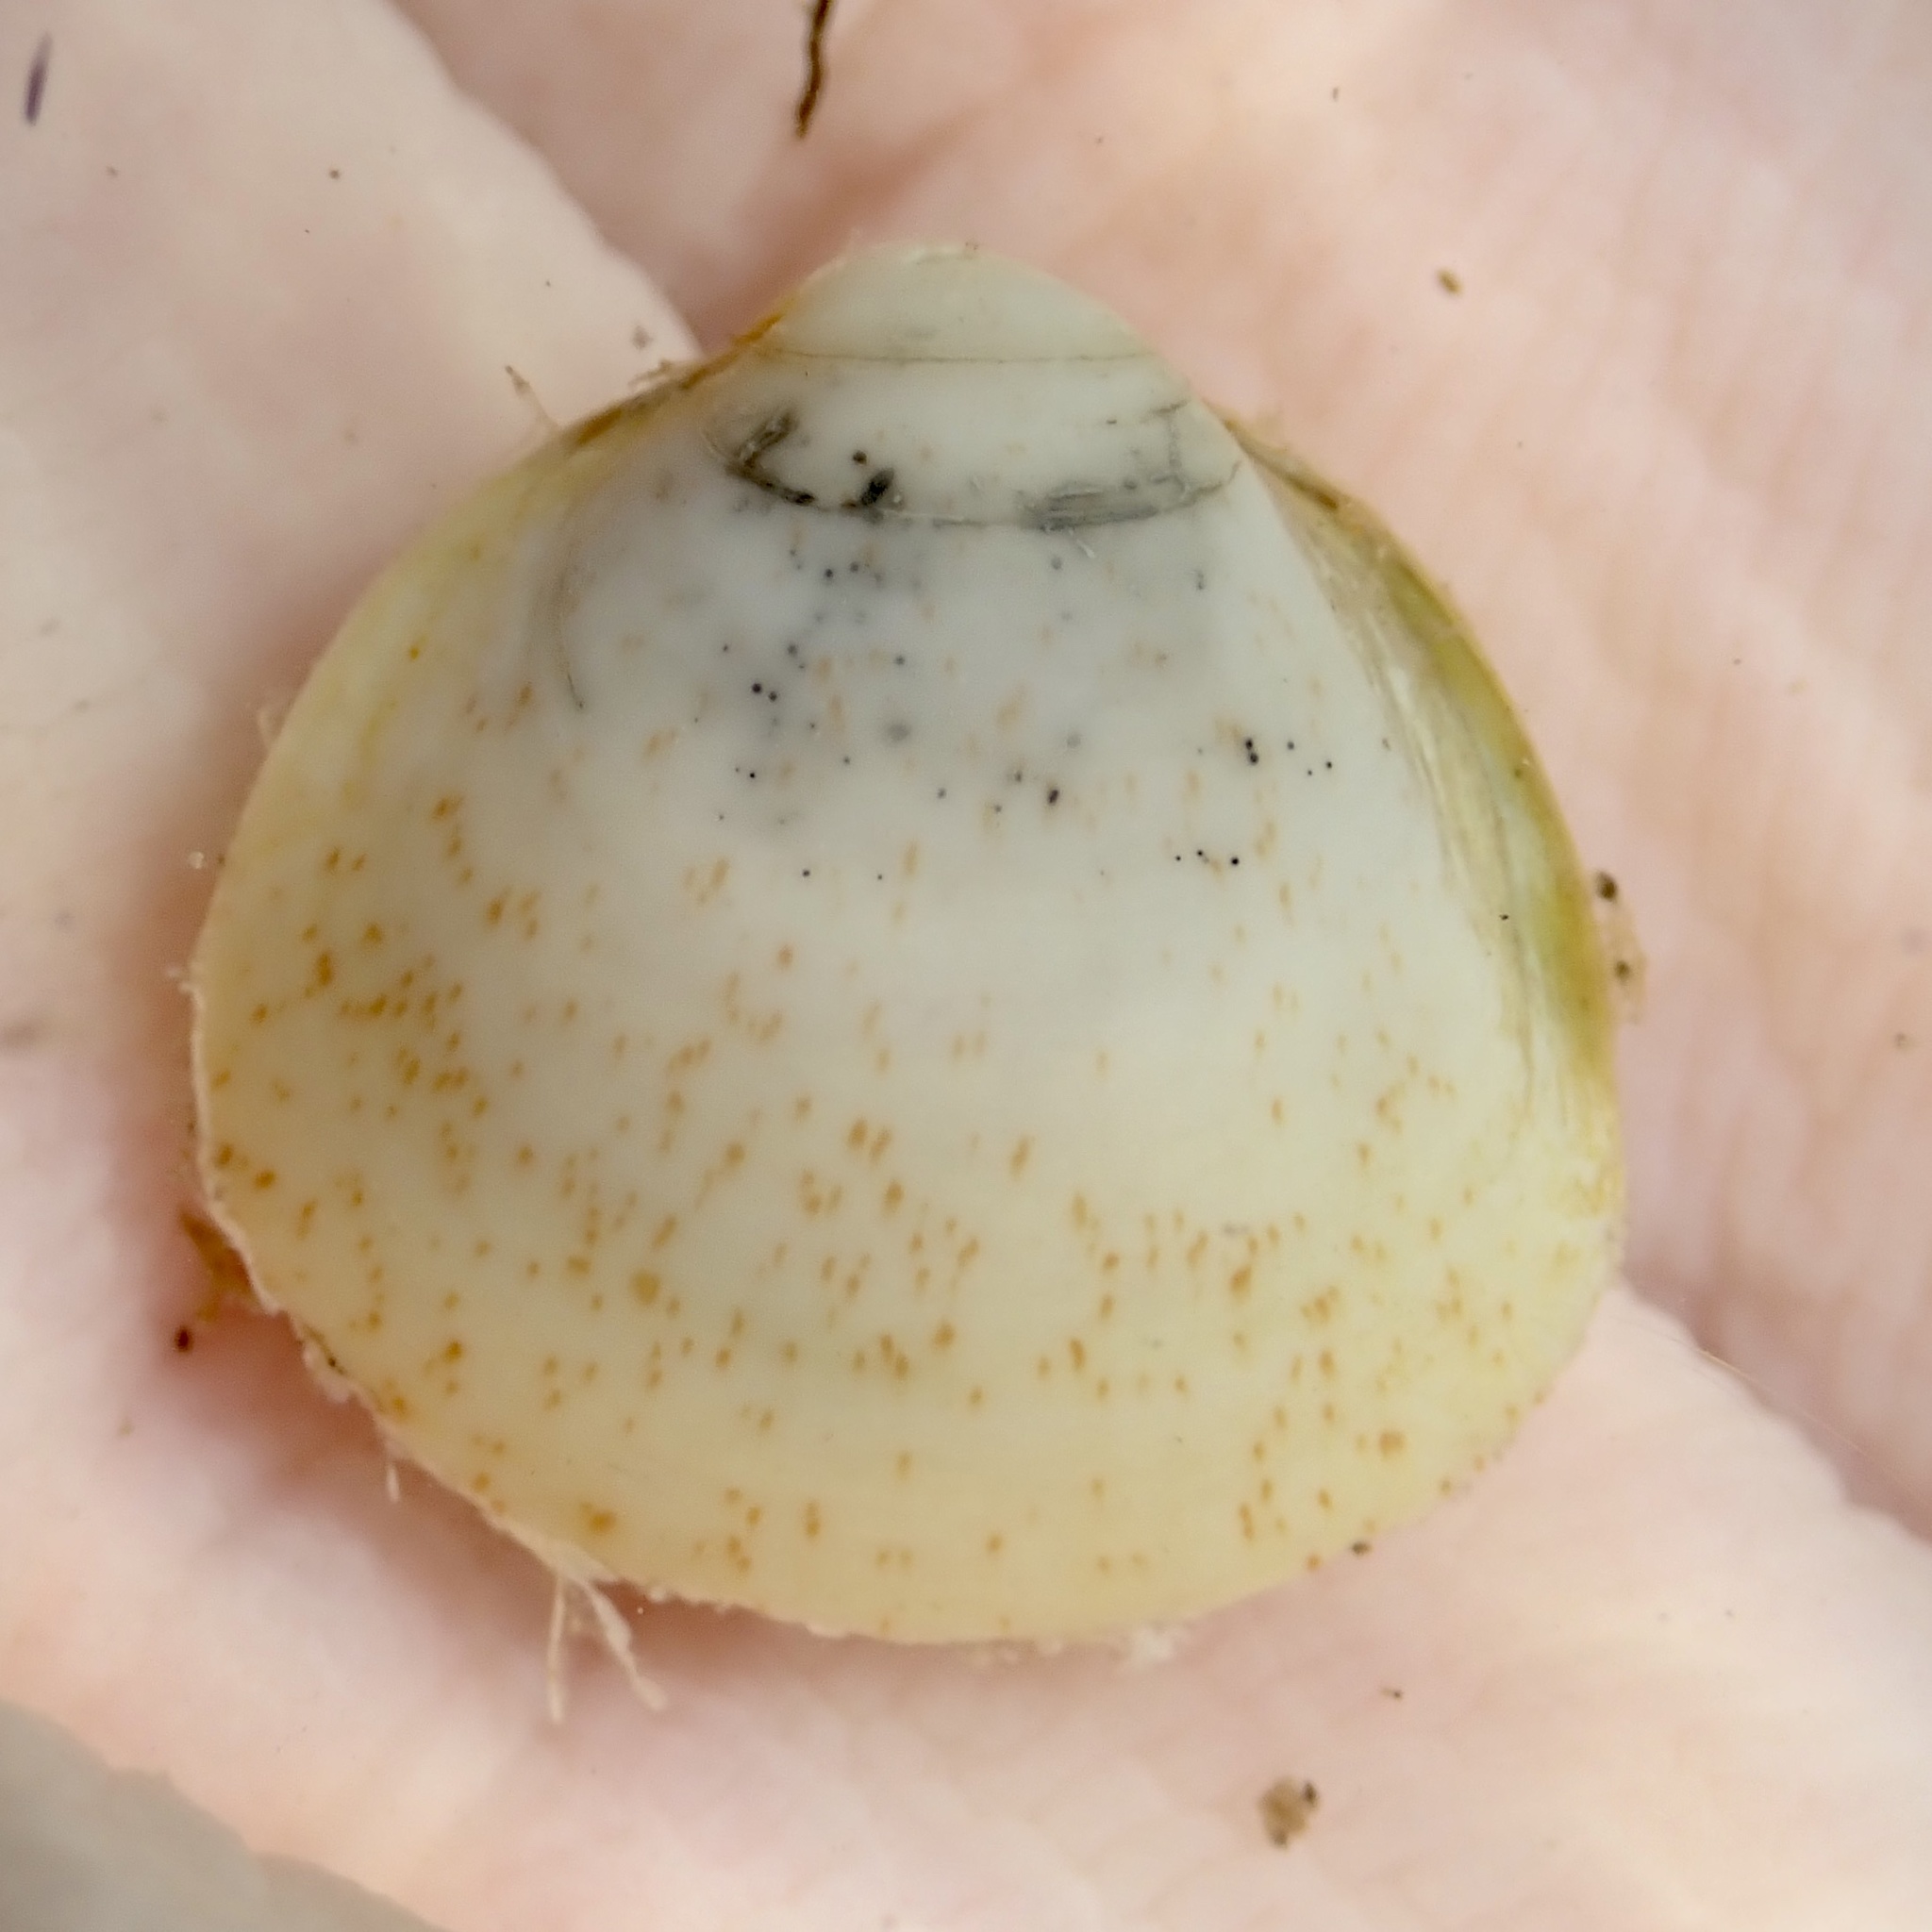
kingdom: Animalia
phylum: Mollusca
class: Bivalvia
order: Cardiida
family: Cardiidae
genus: Laevicardium
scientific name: Laevicardium mortoni
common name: Morton eggcockle
